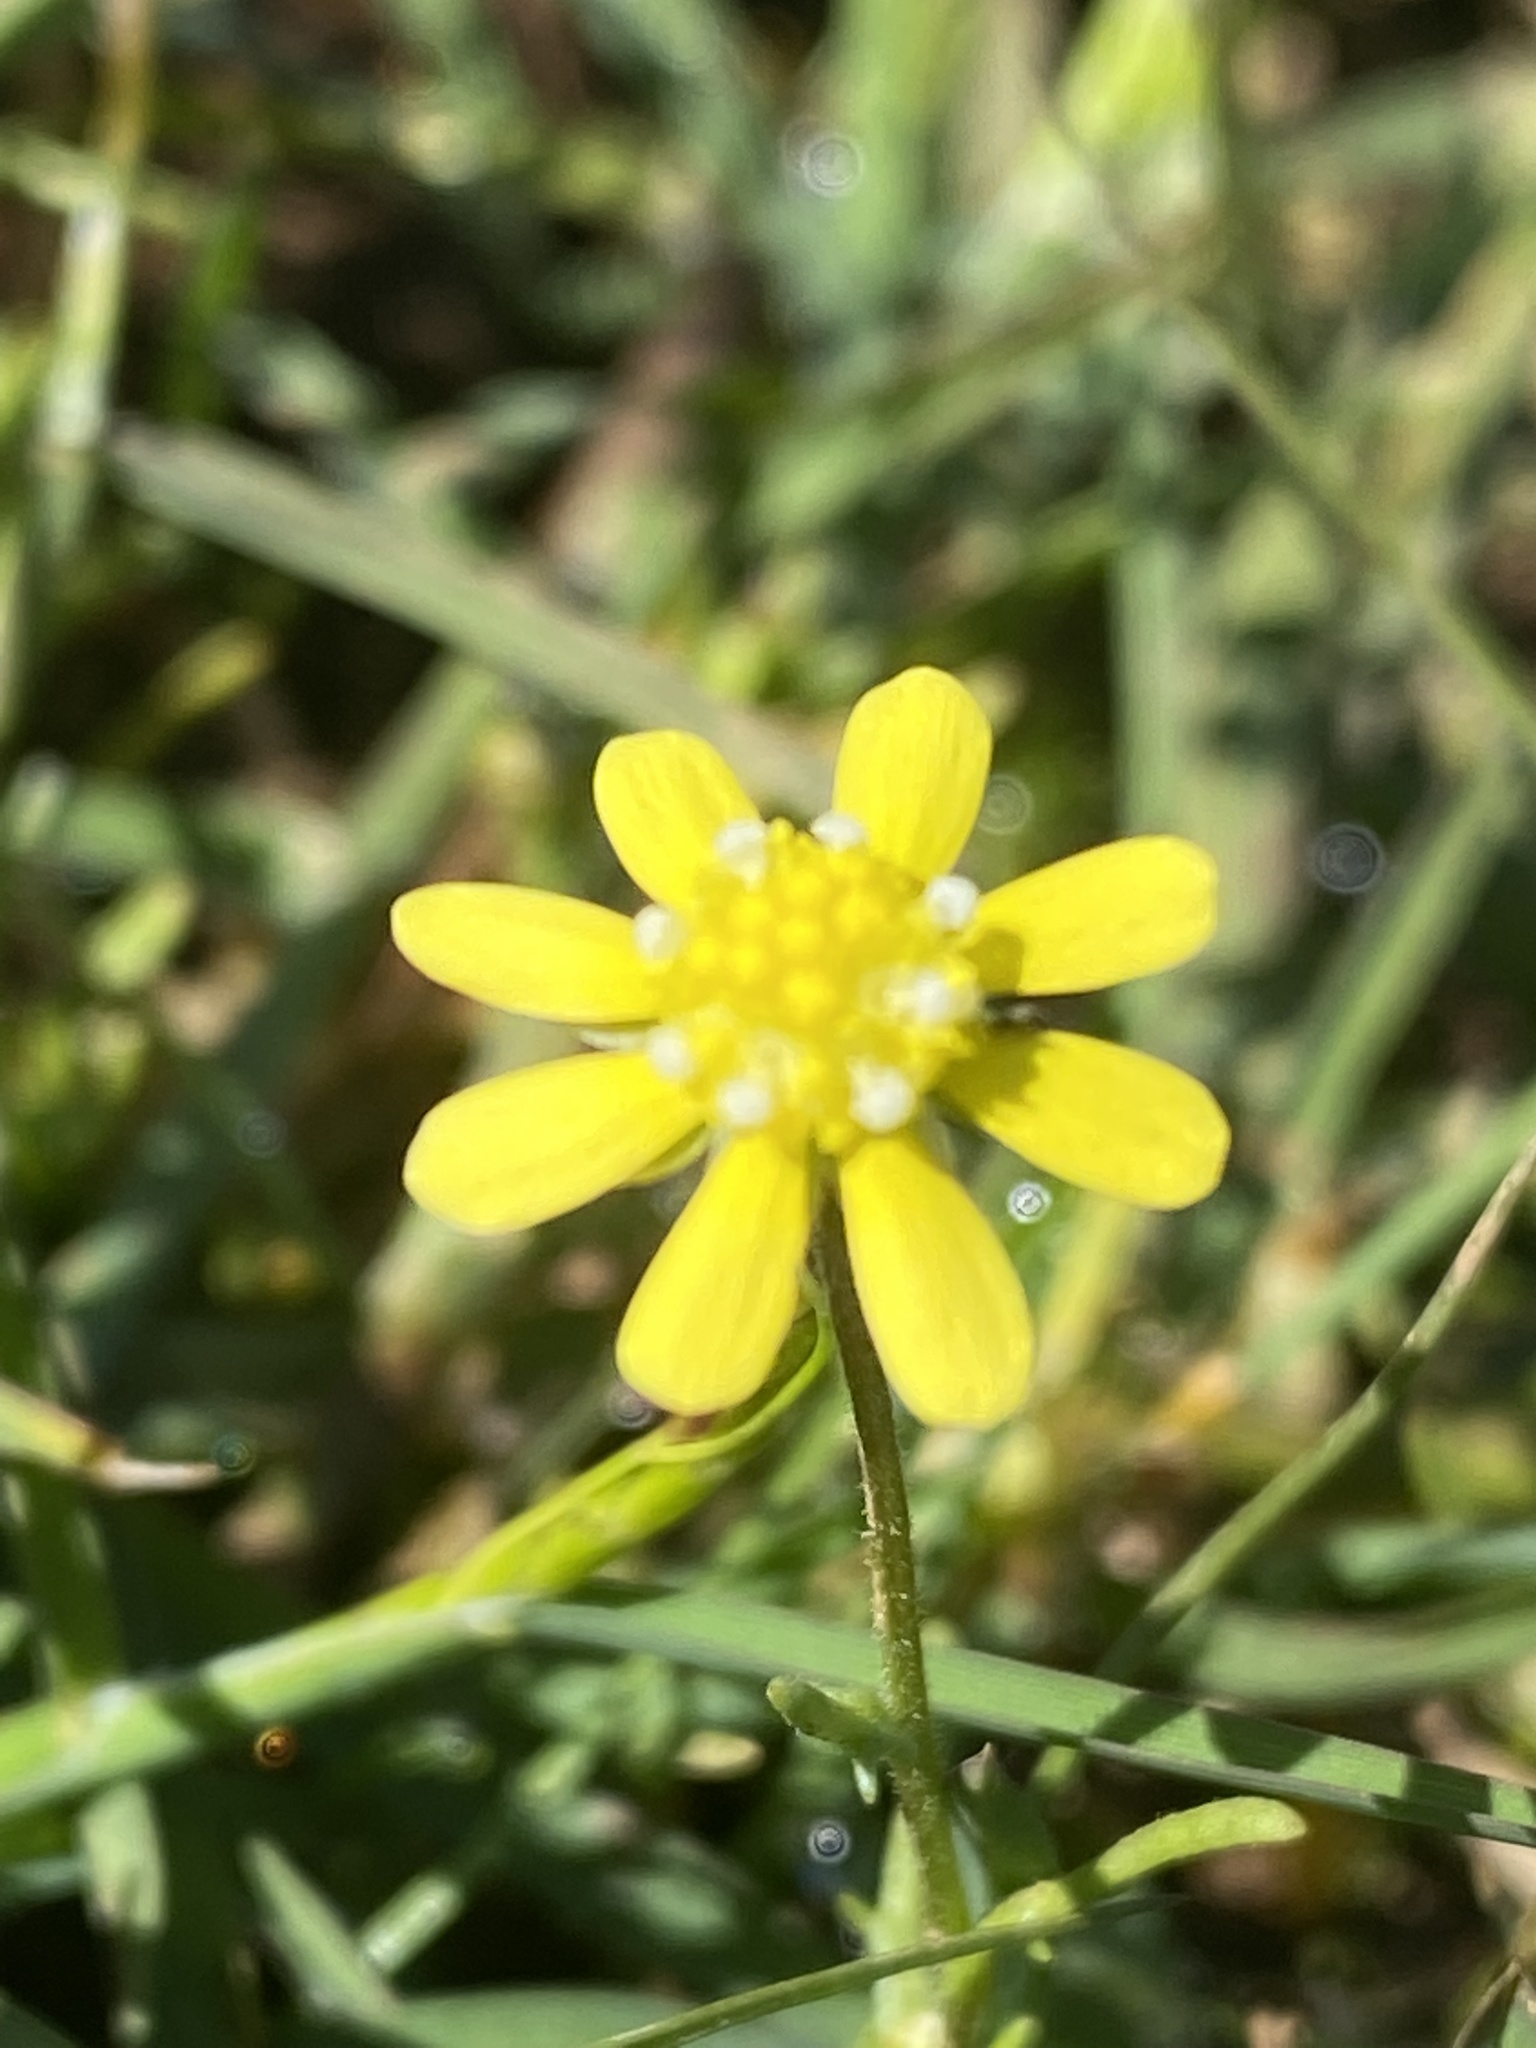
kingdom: Plantae
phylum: Tracheophyta
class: Magnoliopsida
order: Asterales
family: Asteraceae
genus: Blennosperma
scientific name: Blennosperma nanum
